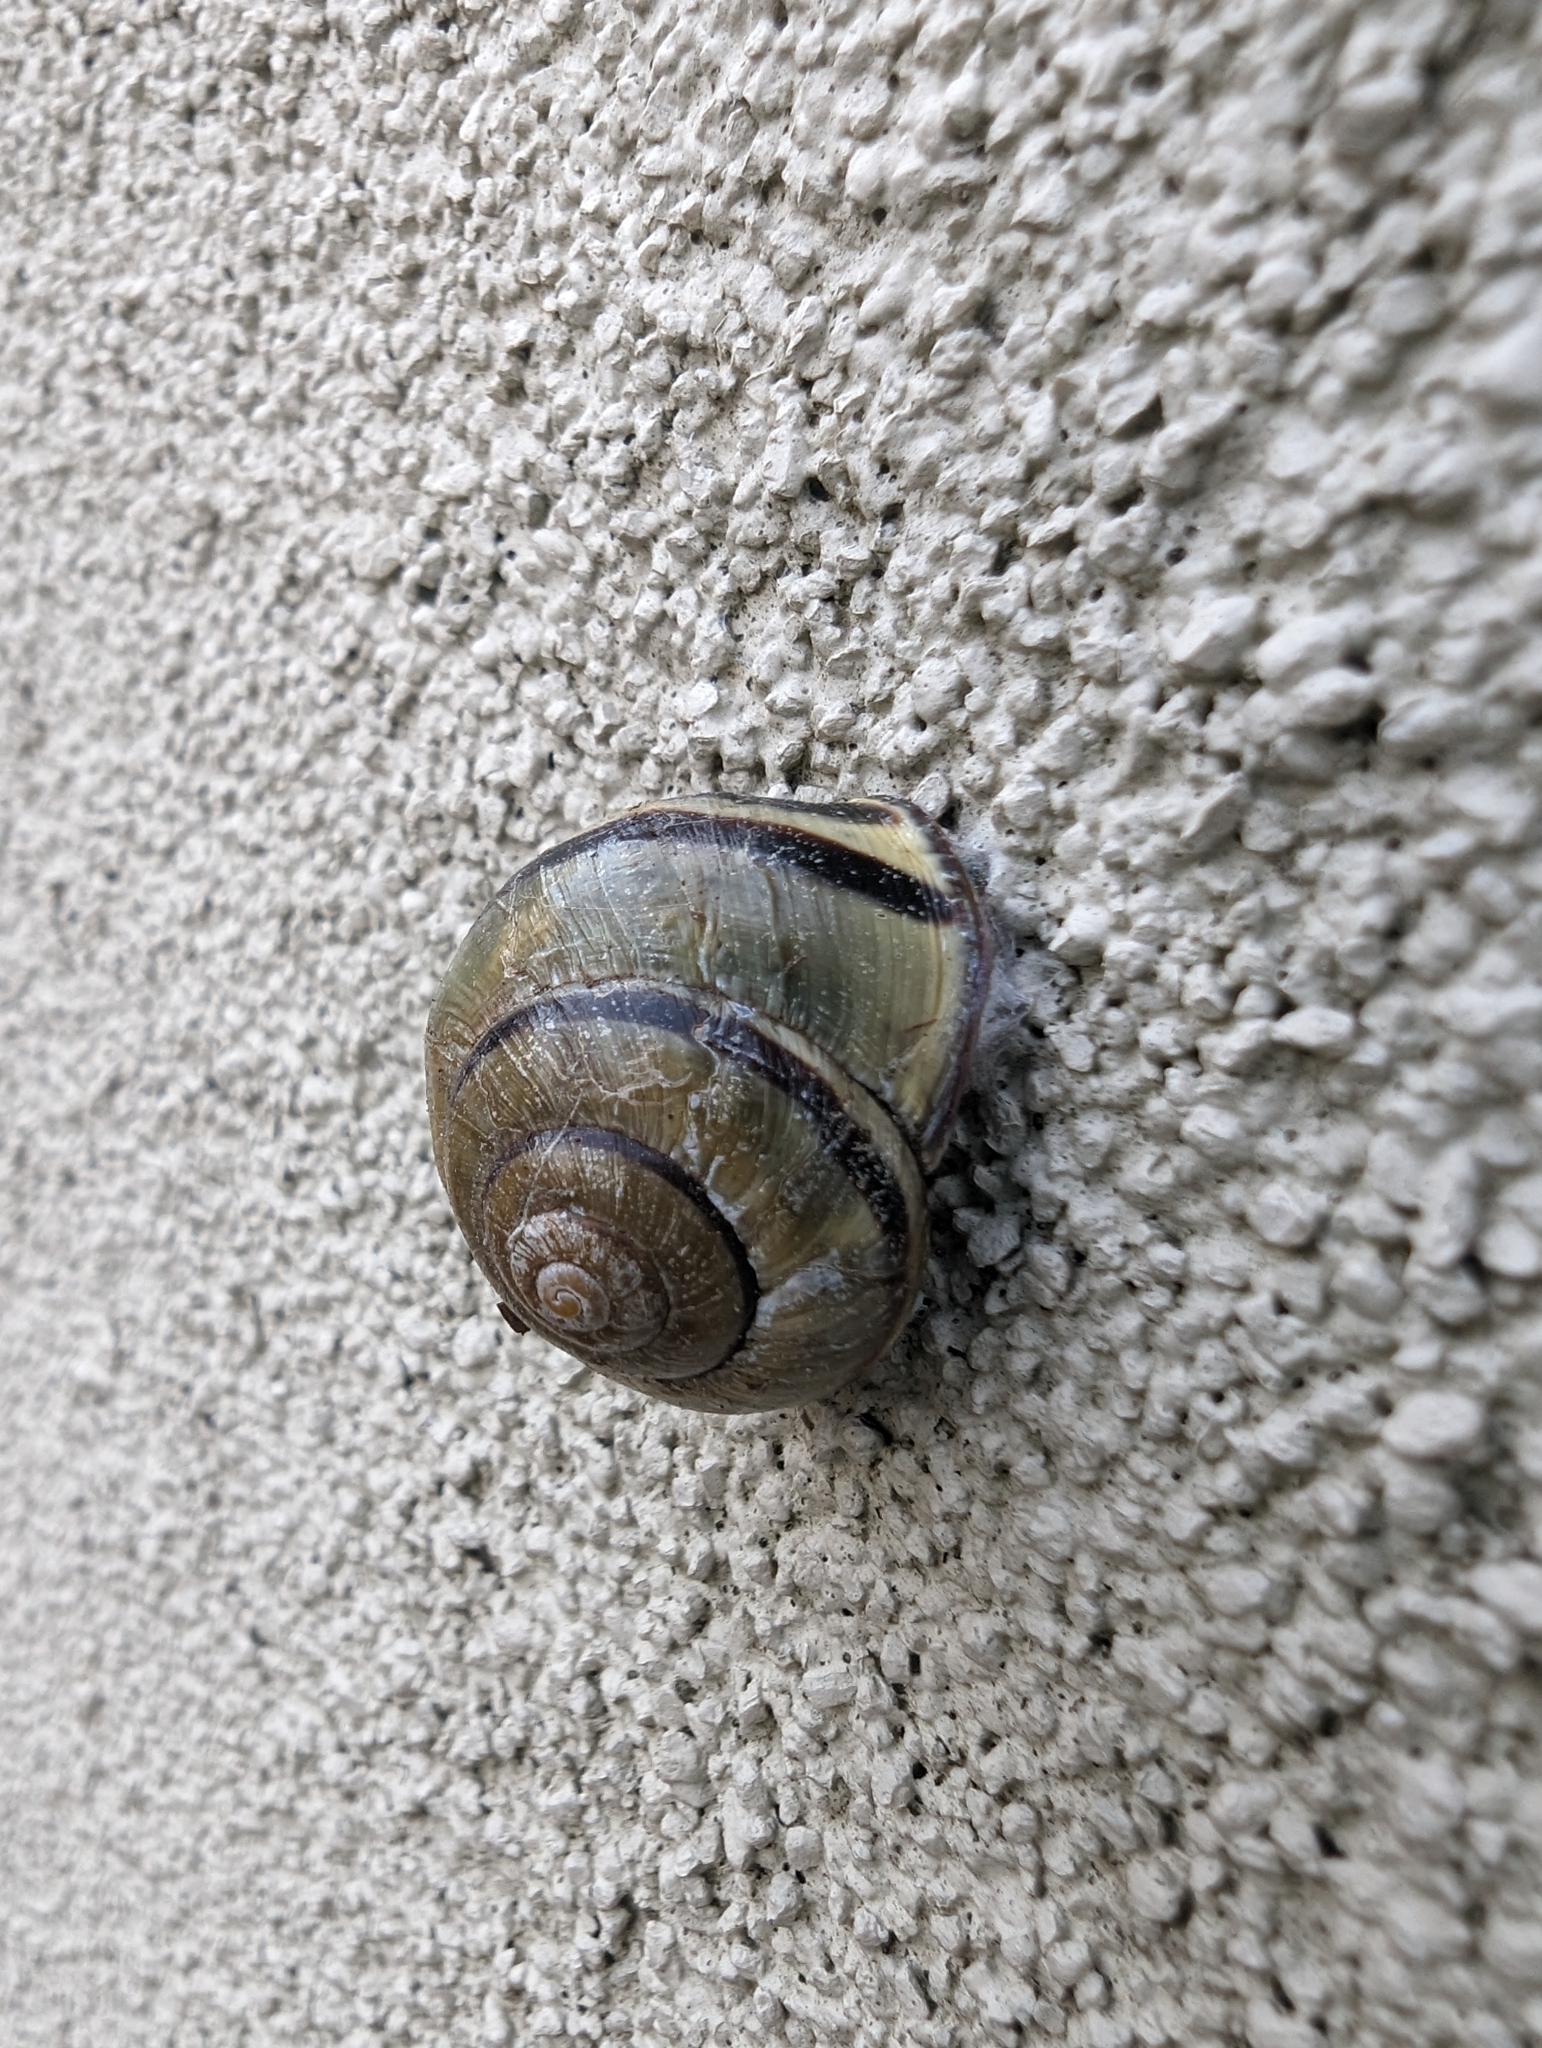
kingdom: Animalia
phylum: Mollusca
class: Gastropoda
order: Stylommatophora
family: Helicidae
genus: Cepaea
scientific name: Cepaea nemoralis
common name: Grovesnail
